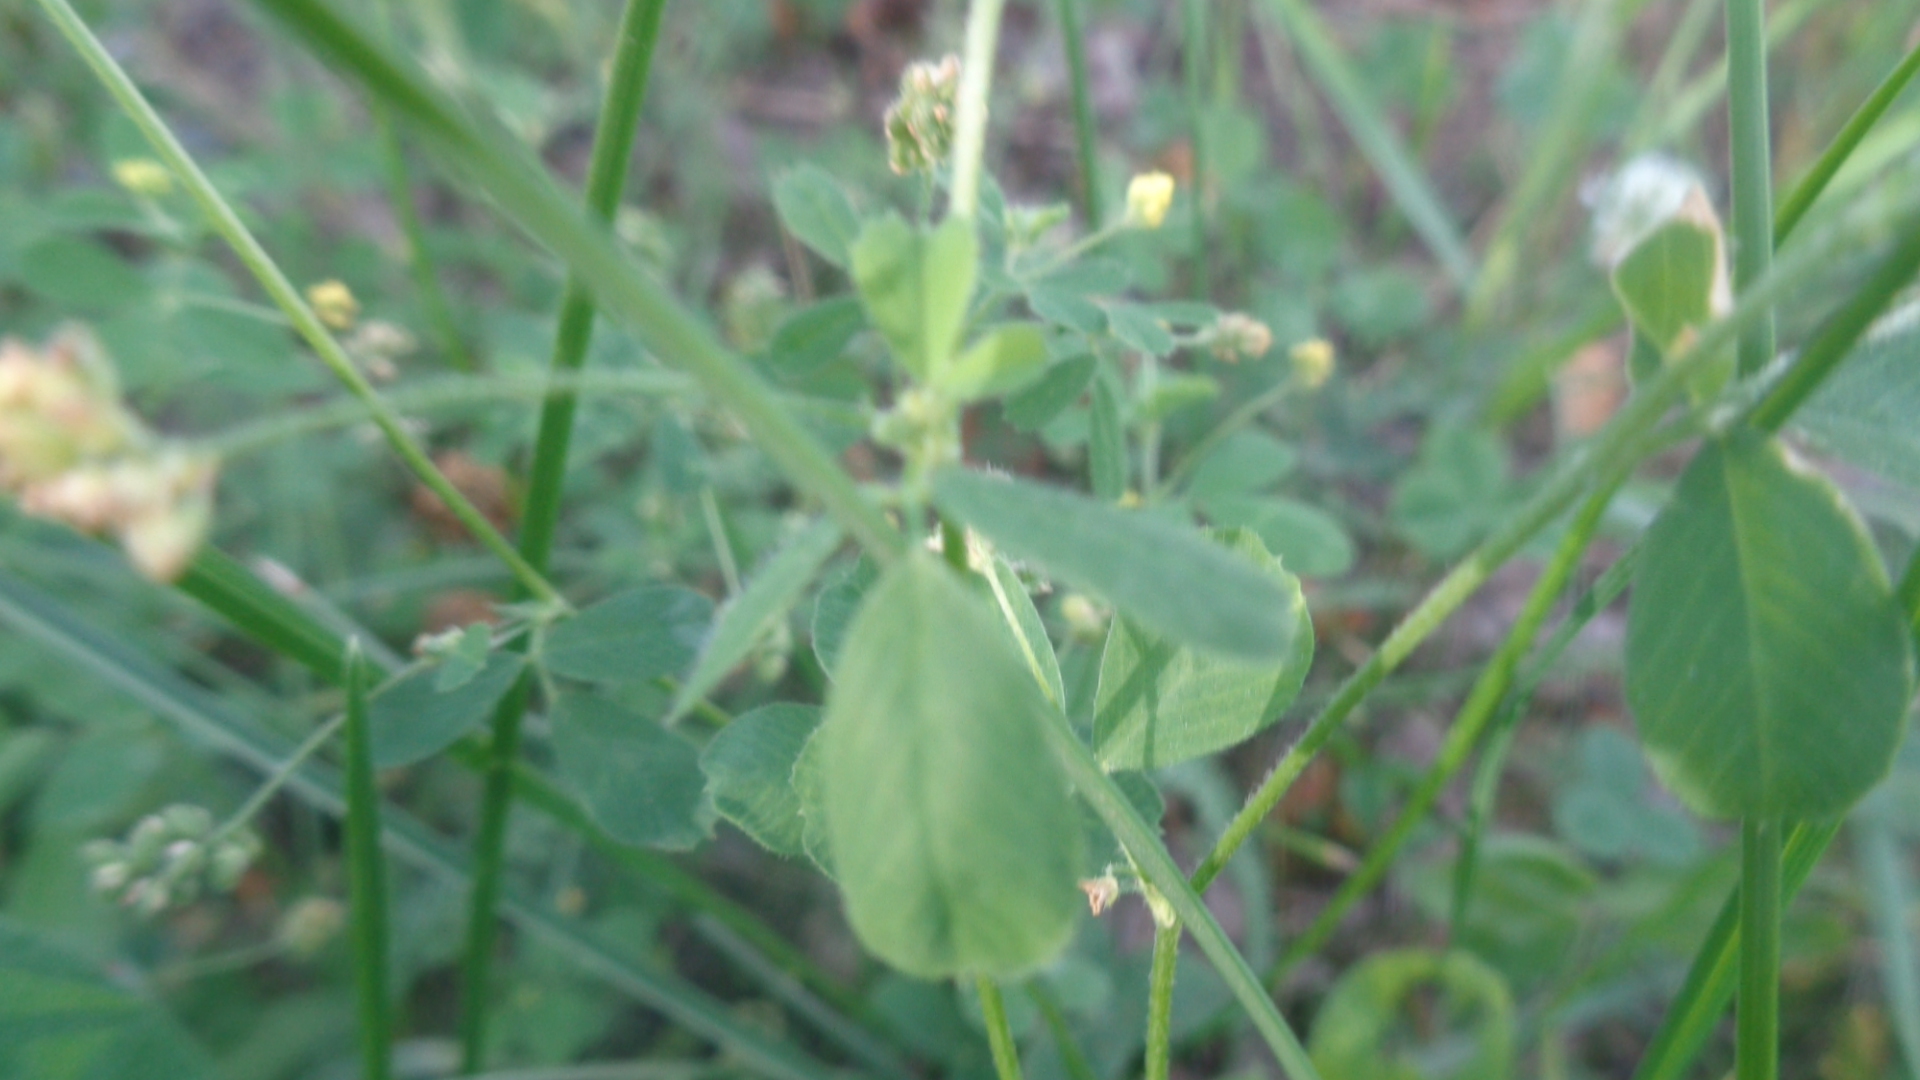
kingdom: Plantae
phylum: Tracheophyta
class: Magnoliopsida
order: Fabales
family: Fabaceae
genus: Medicago
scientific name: Medicago lupulina
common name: Black medick
